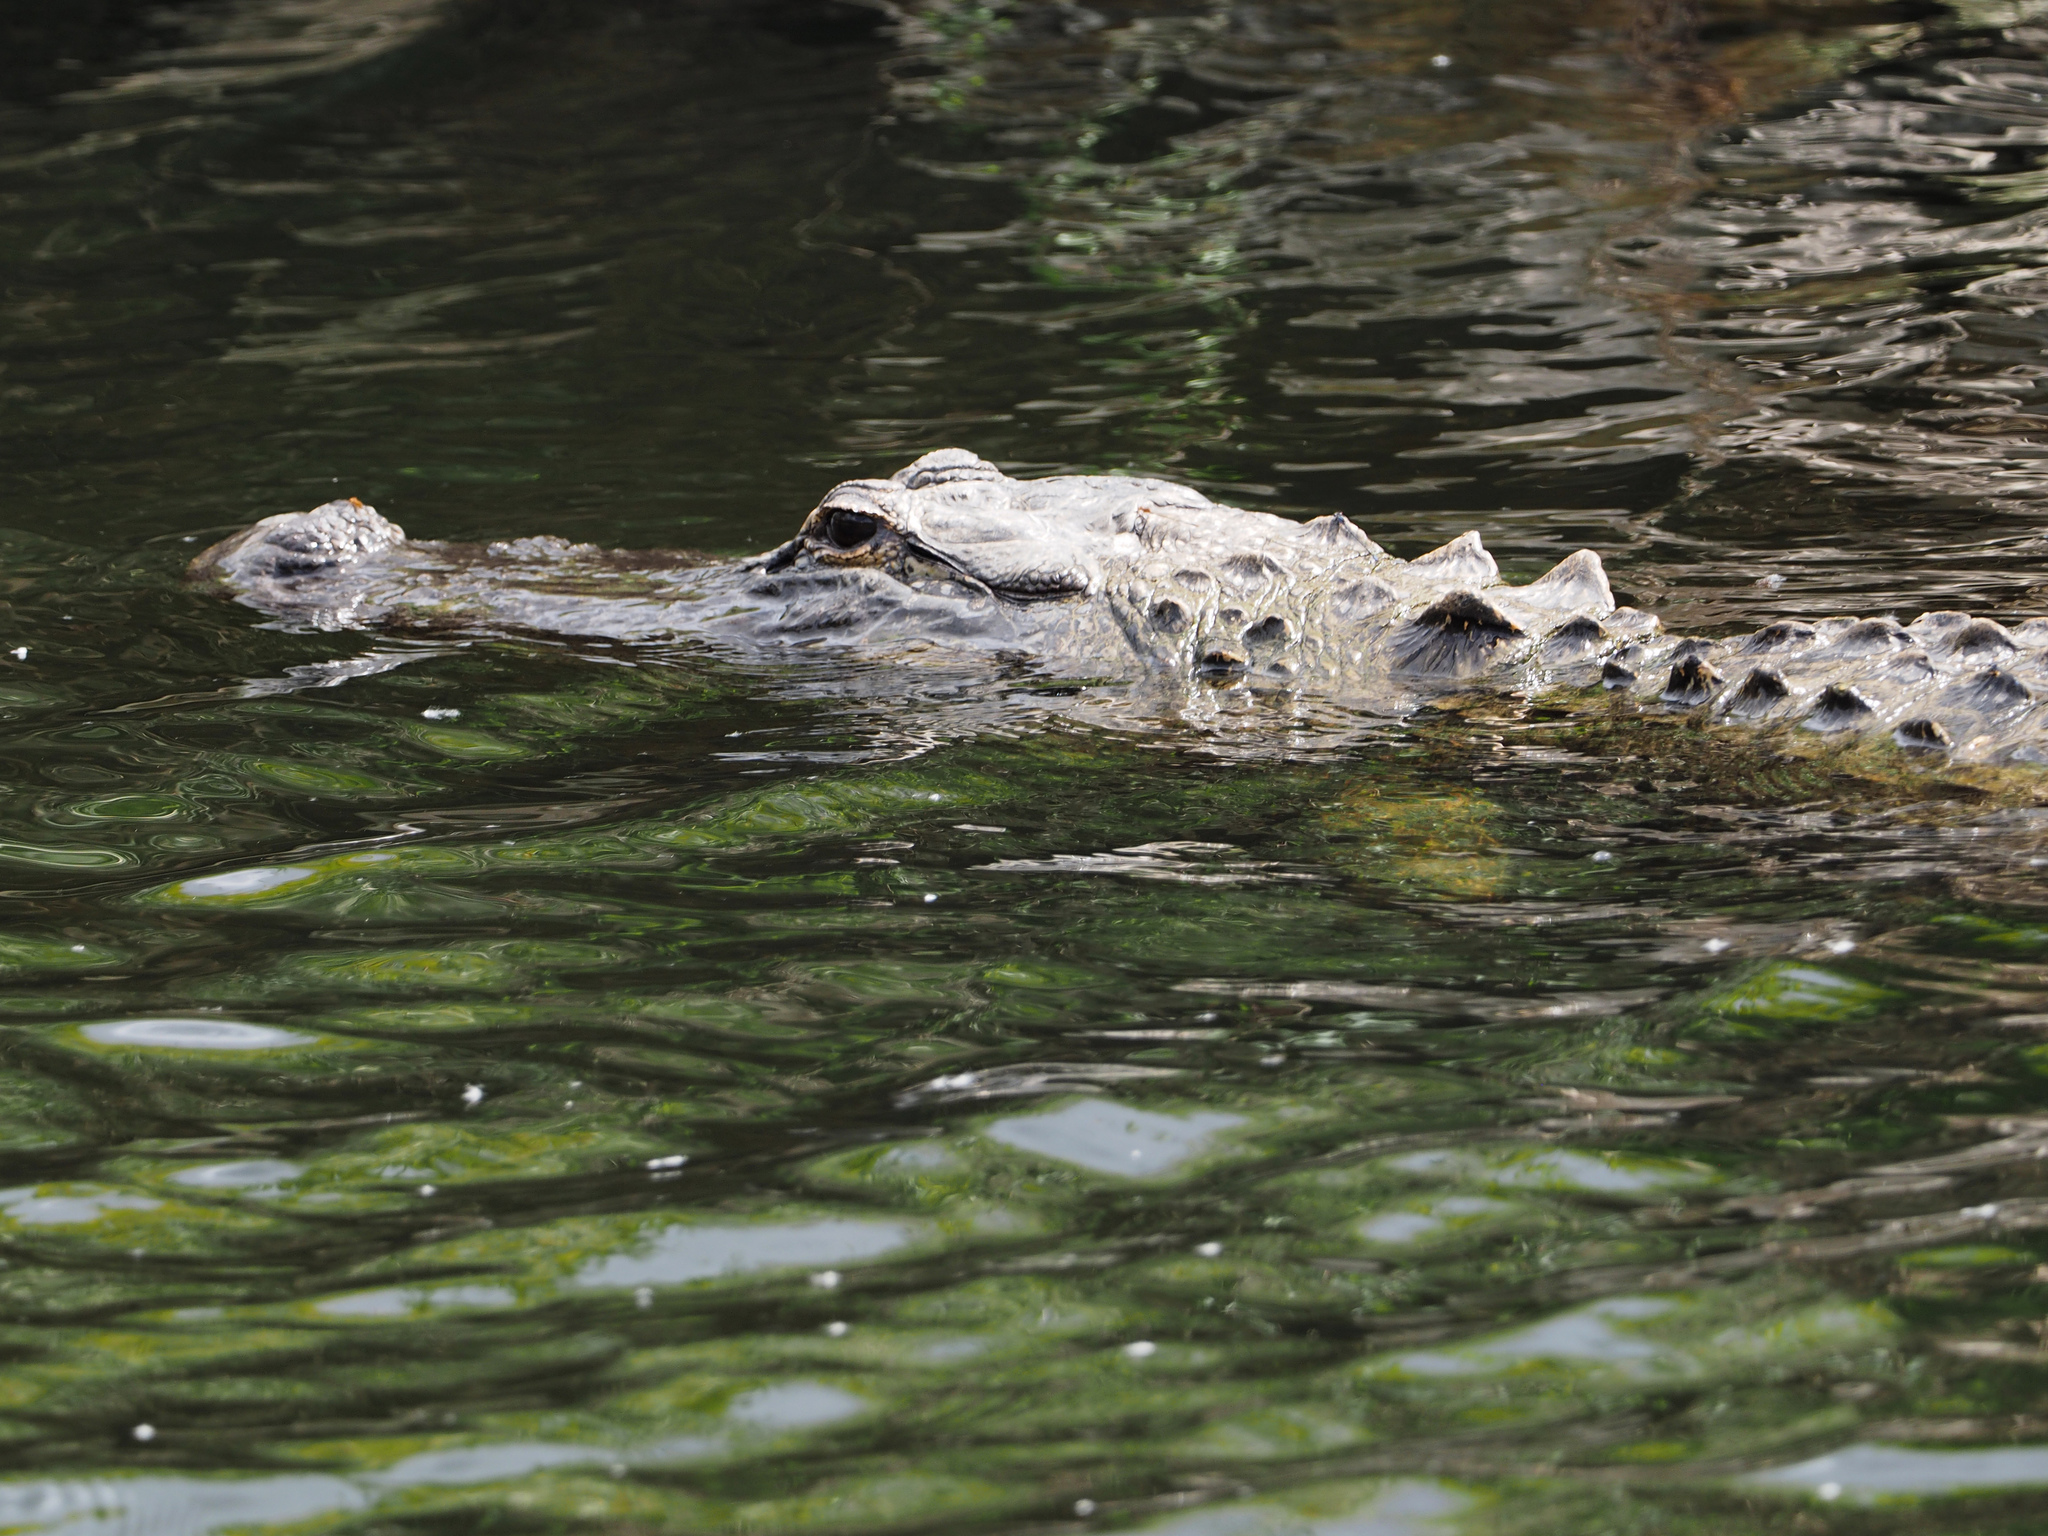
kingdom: Animalia
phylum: Chordata
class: Crocodylia
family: Alligatoridae
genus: Alligator
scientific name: Alligator mississippiensis
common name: American alligator
